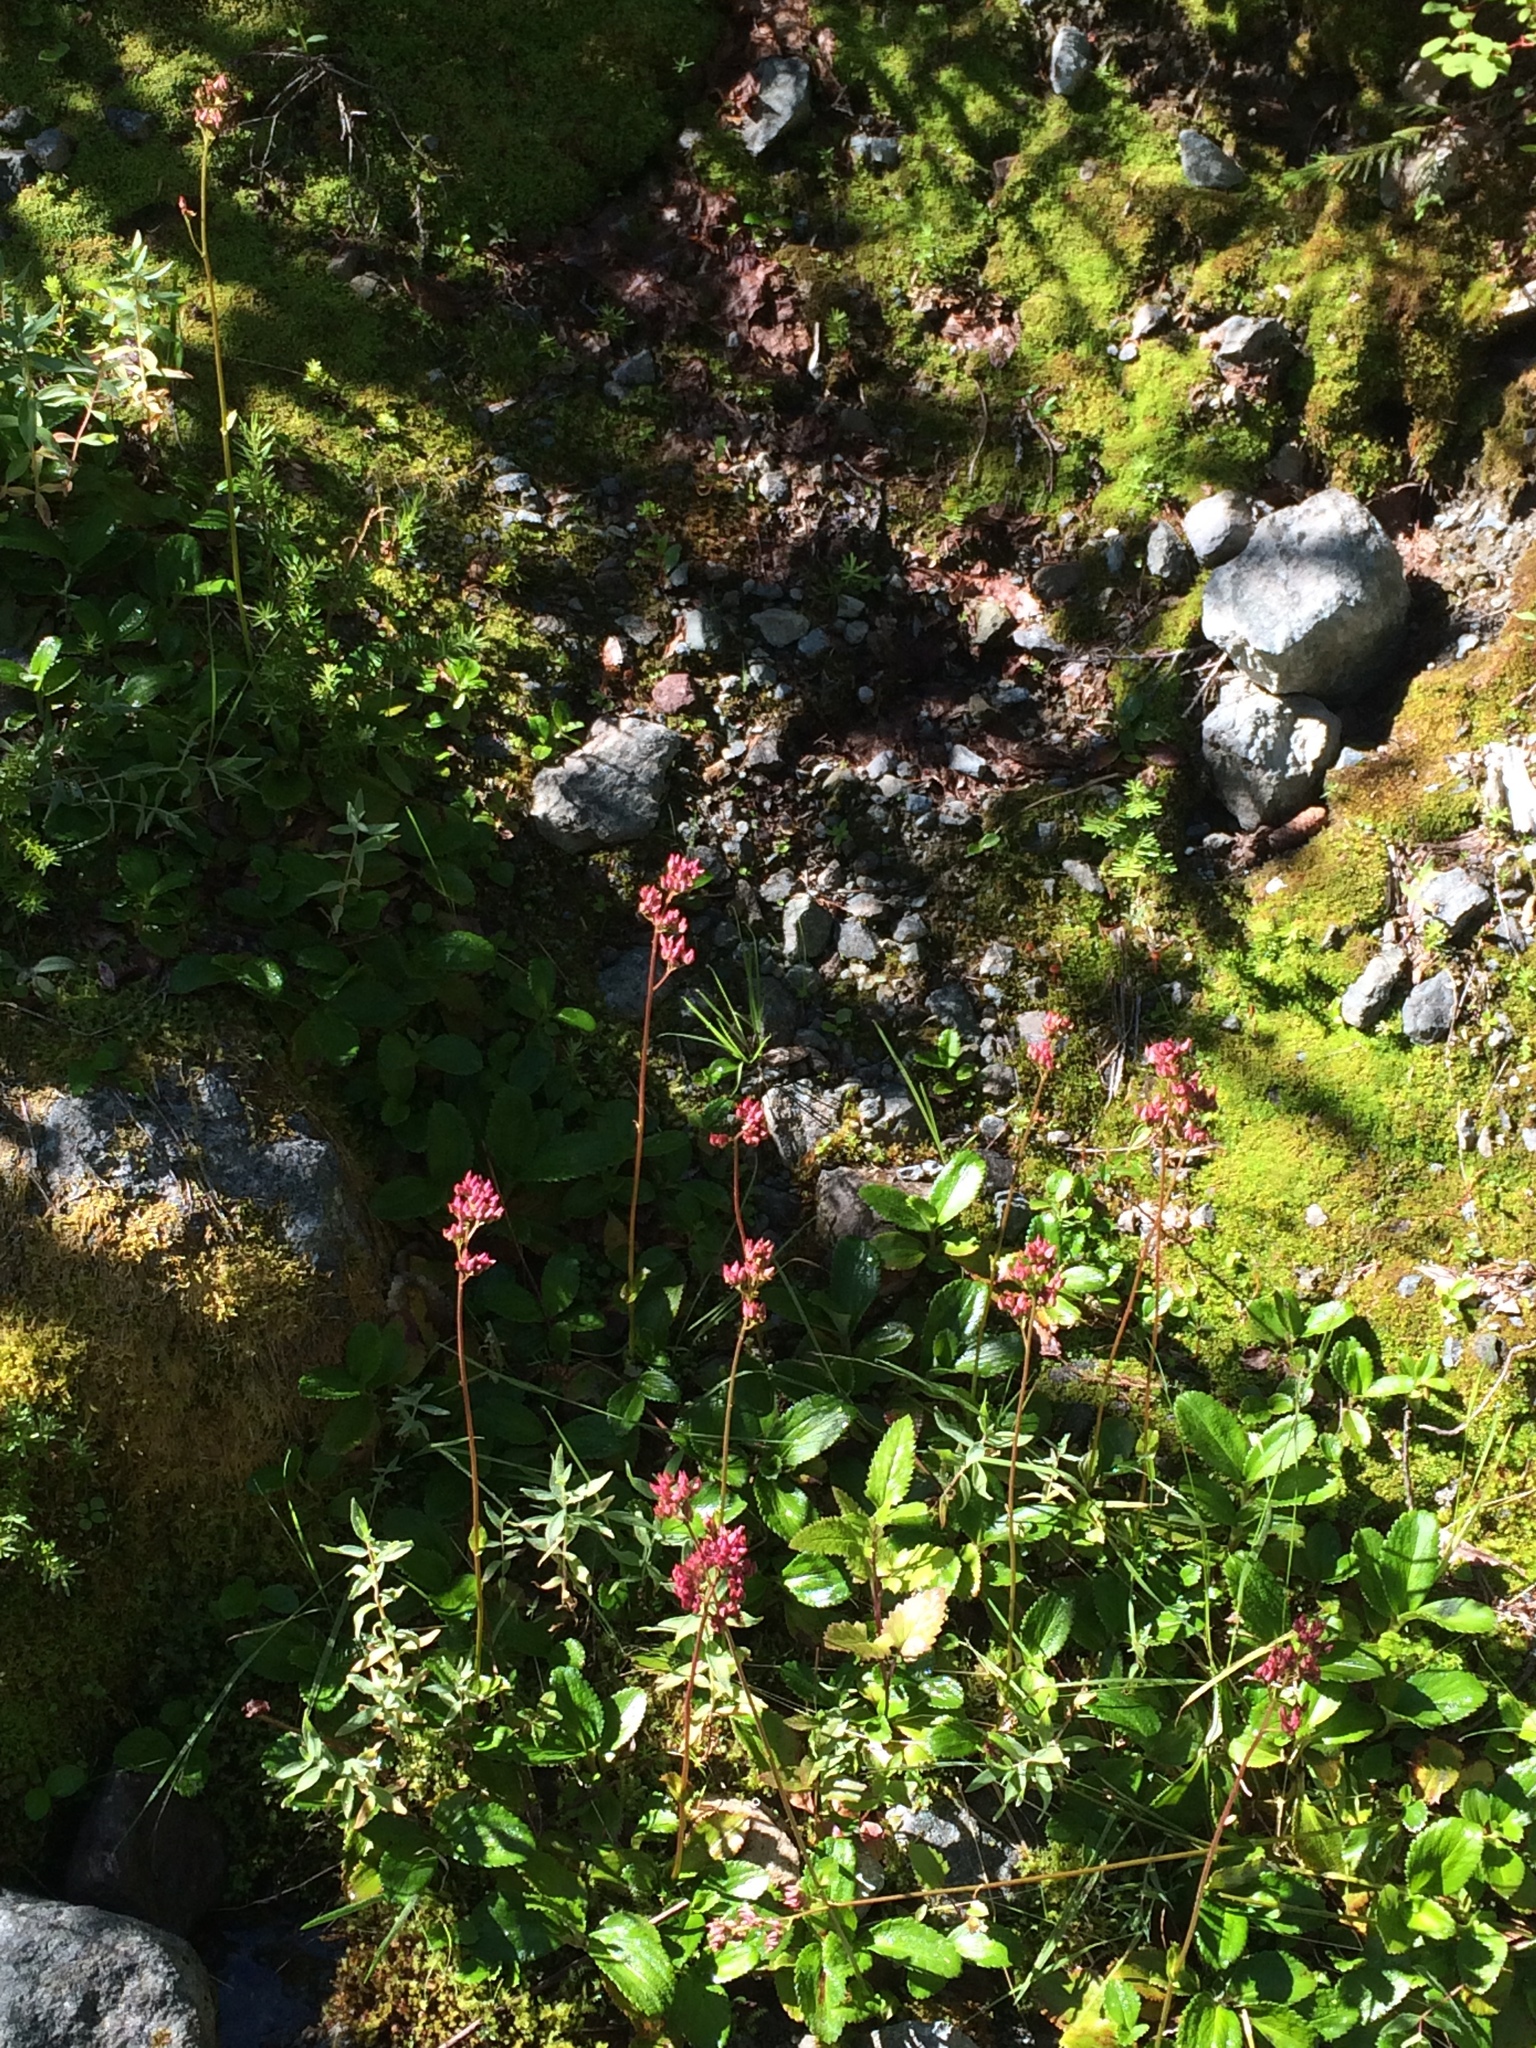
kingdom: Plantae
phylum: Tracheophyta
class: Magnoliopsida
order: Saxifragales
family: Saxifragaceae
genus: Leptarrhena
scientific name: Leptarrhena pyrolifolia
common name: Leatherleaf-saxifrage
